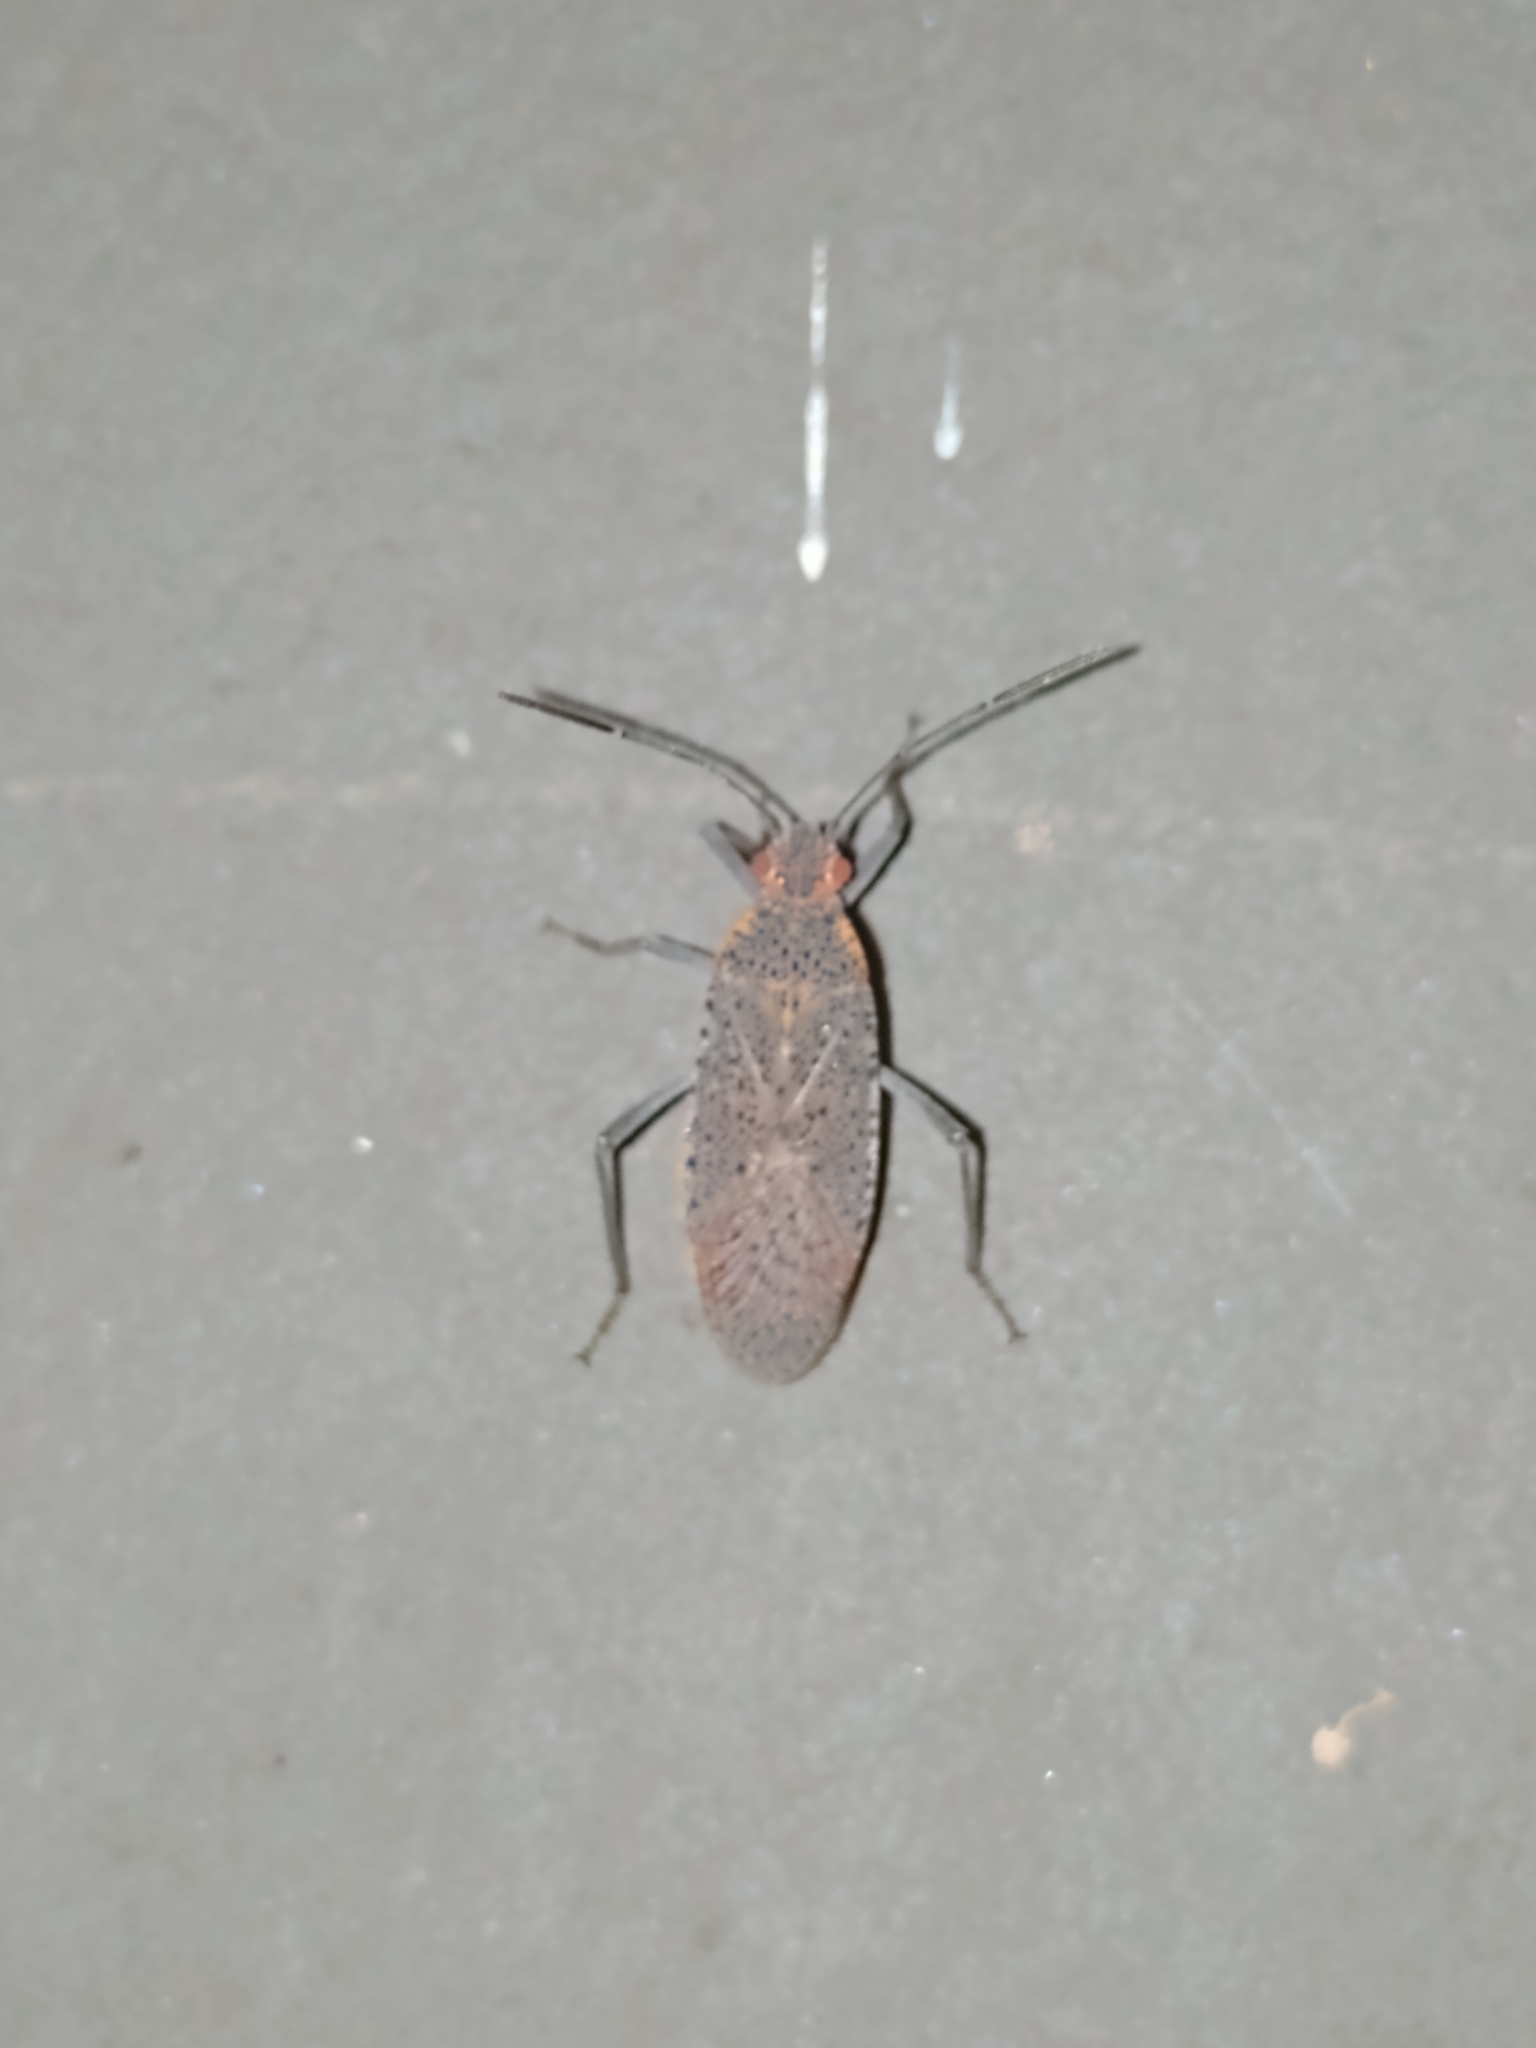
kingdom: Animalia
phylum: Arthropoda
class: Insecta
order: Hemiptera
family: Rhopalidae
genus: Jadera
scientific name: Jadera coturnix
